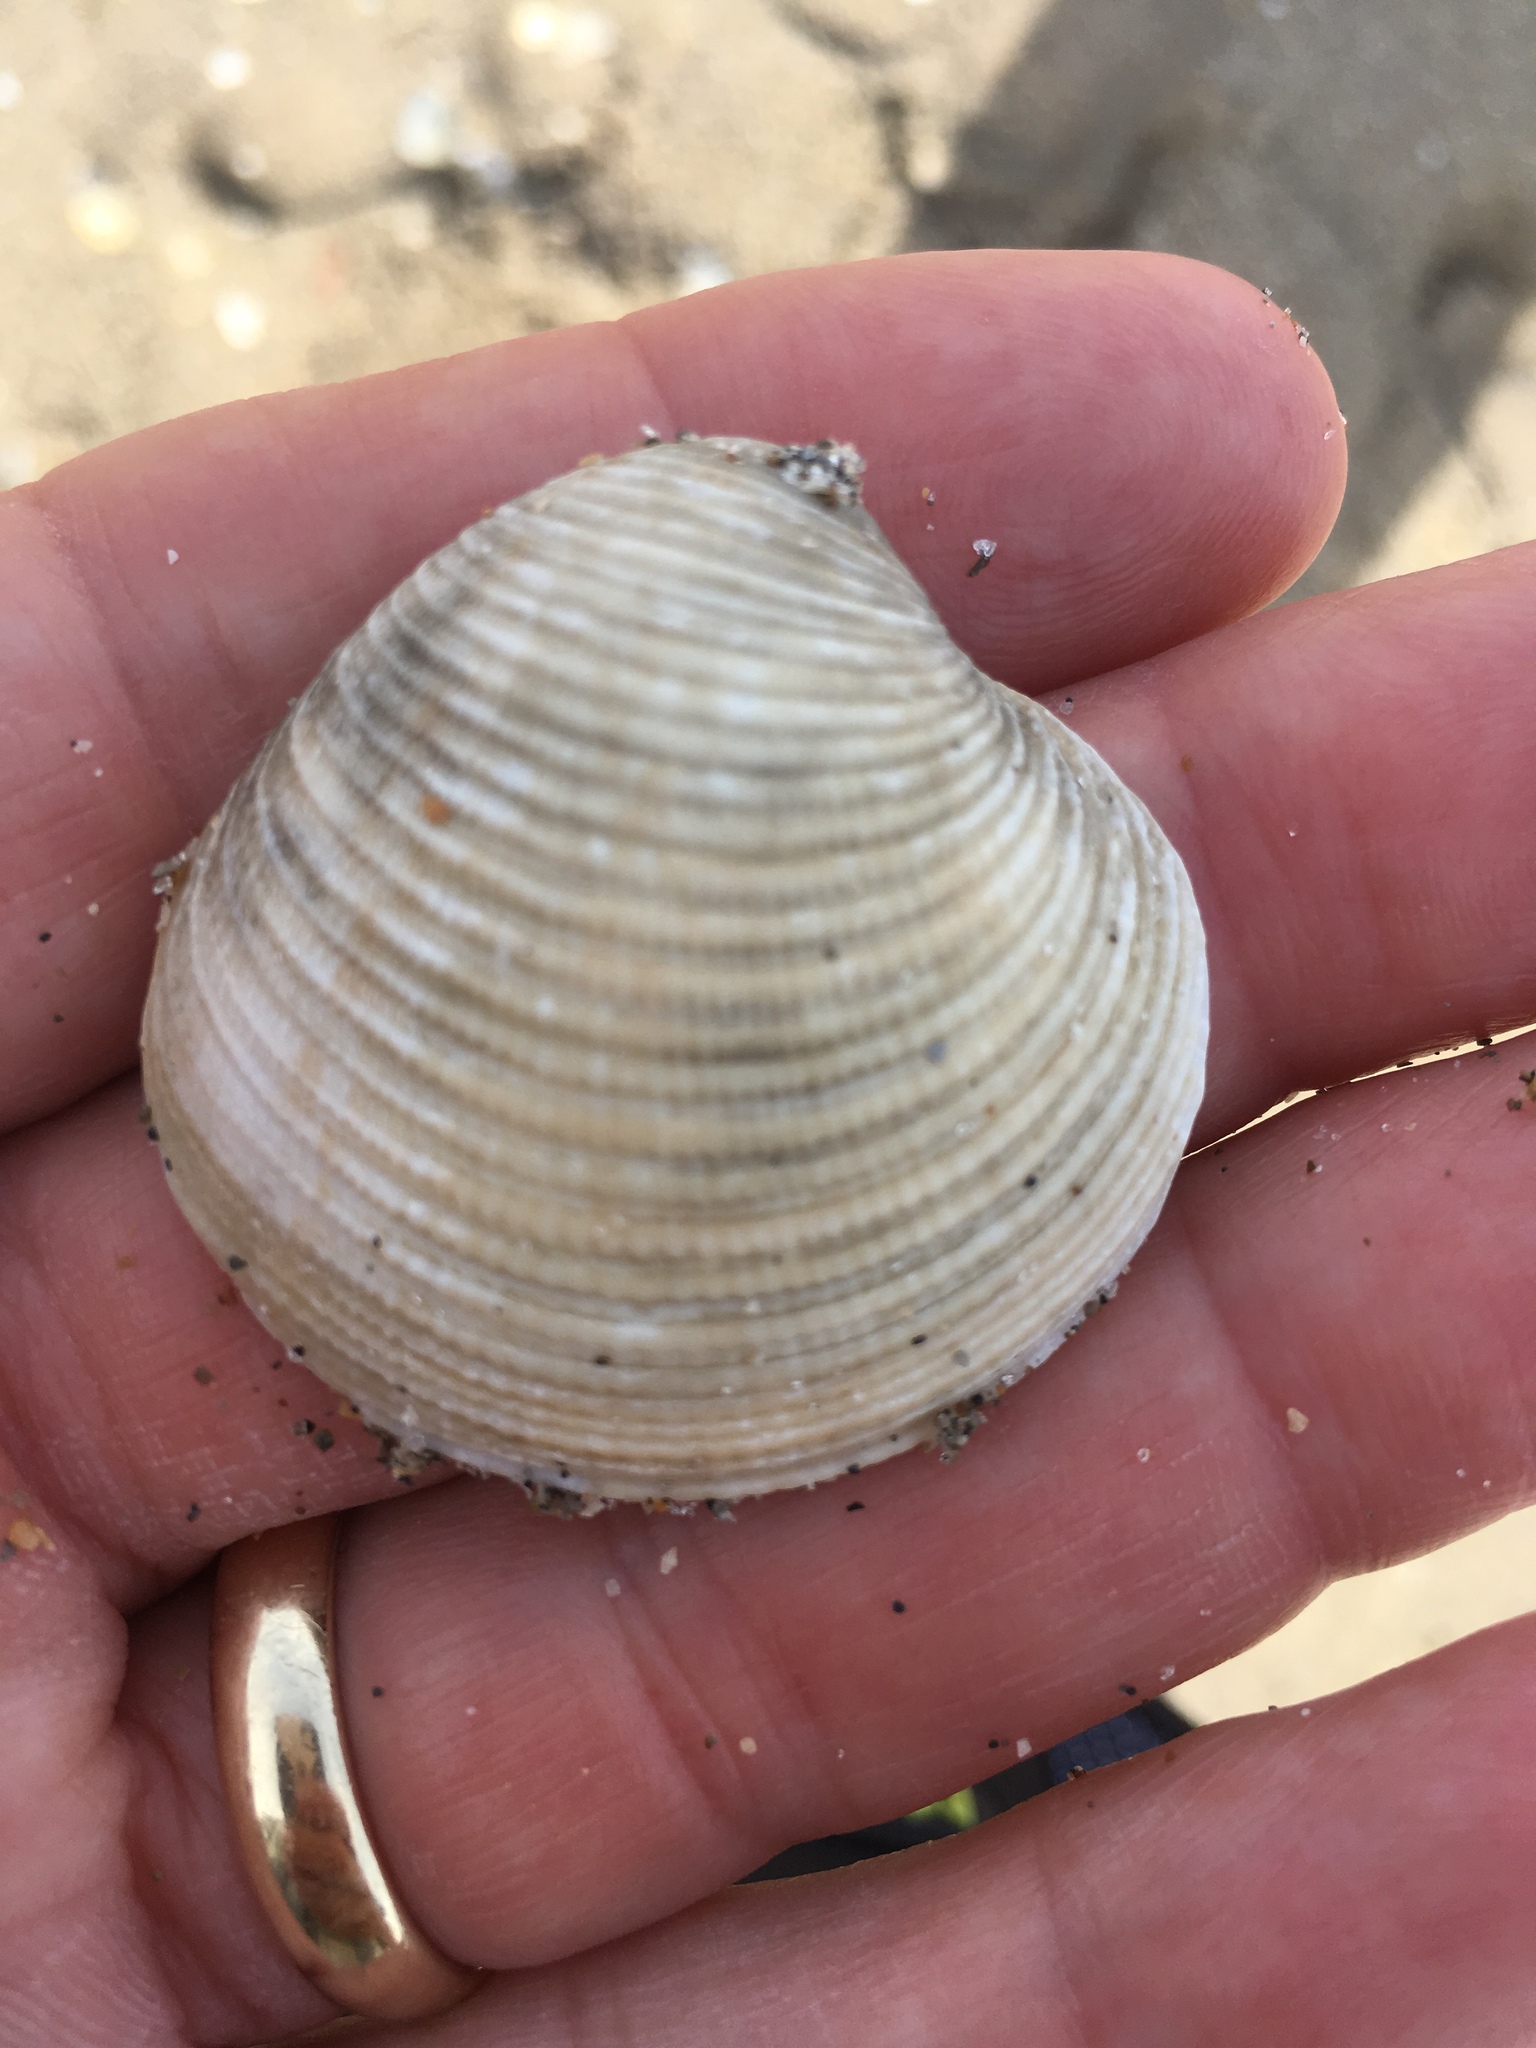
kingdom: Animalia
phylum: Mollusca
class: Bivalvia
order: Venerida
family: Veneridae
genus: Chionopsis
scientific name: Chionopsis intapurpurea
